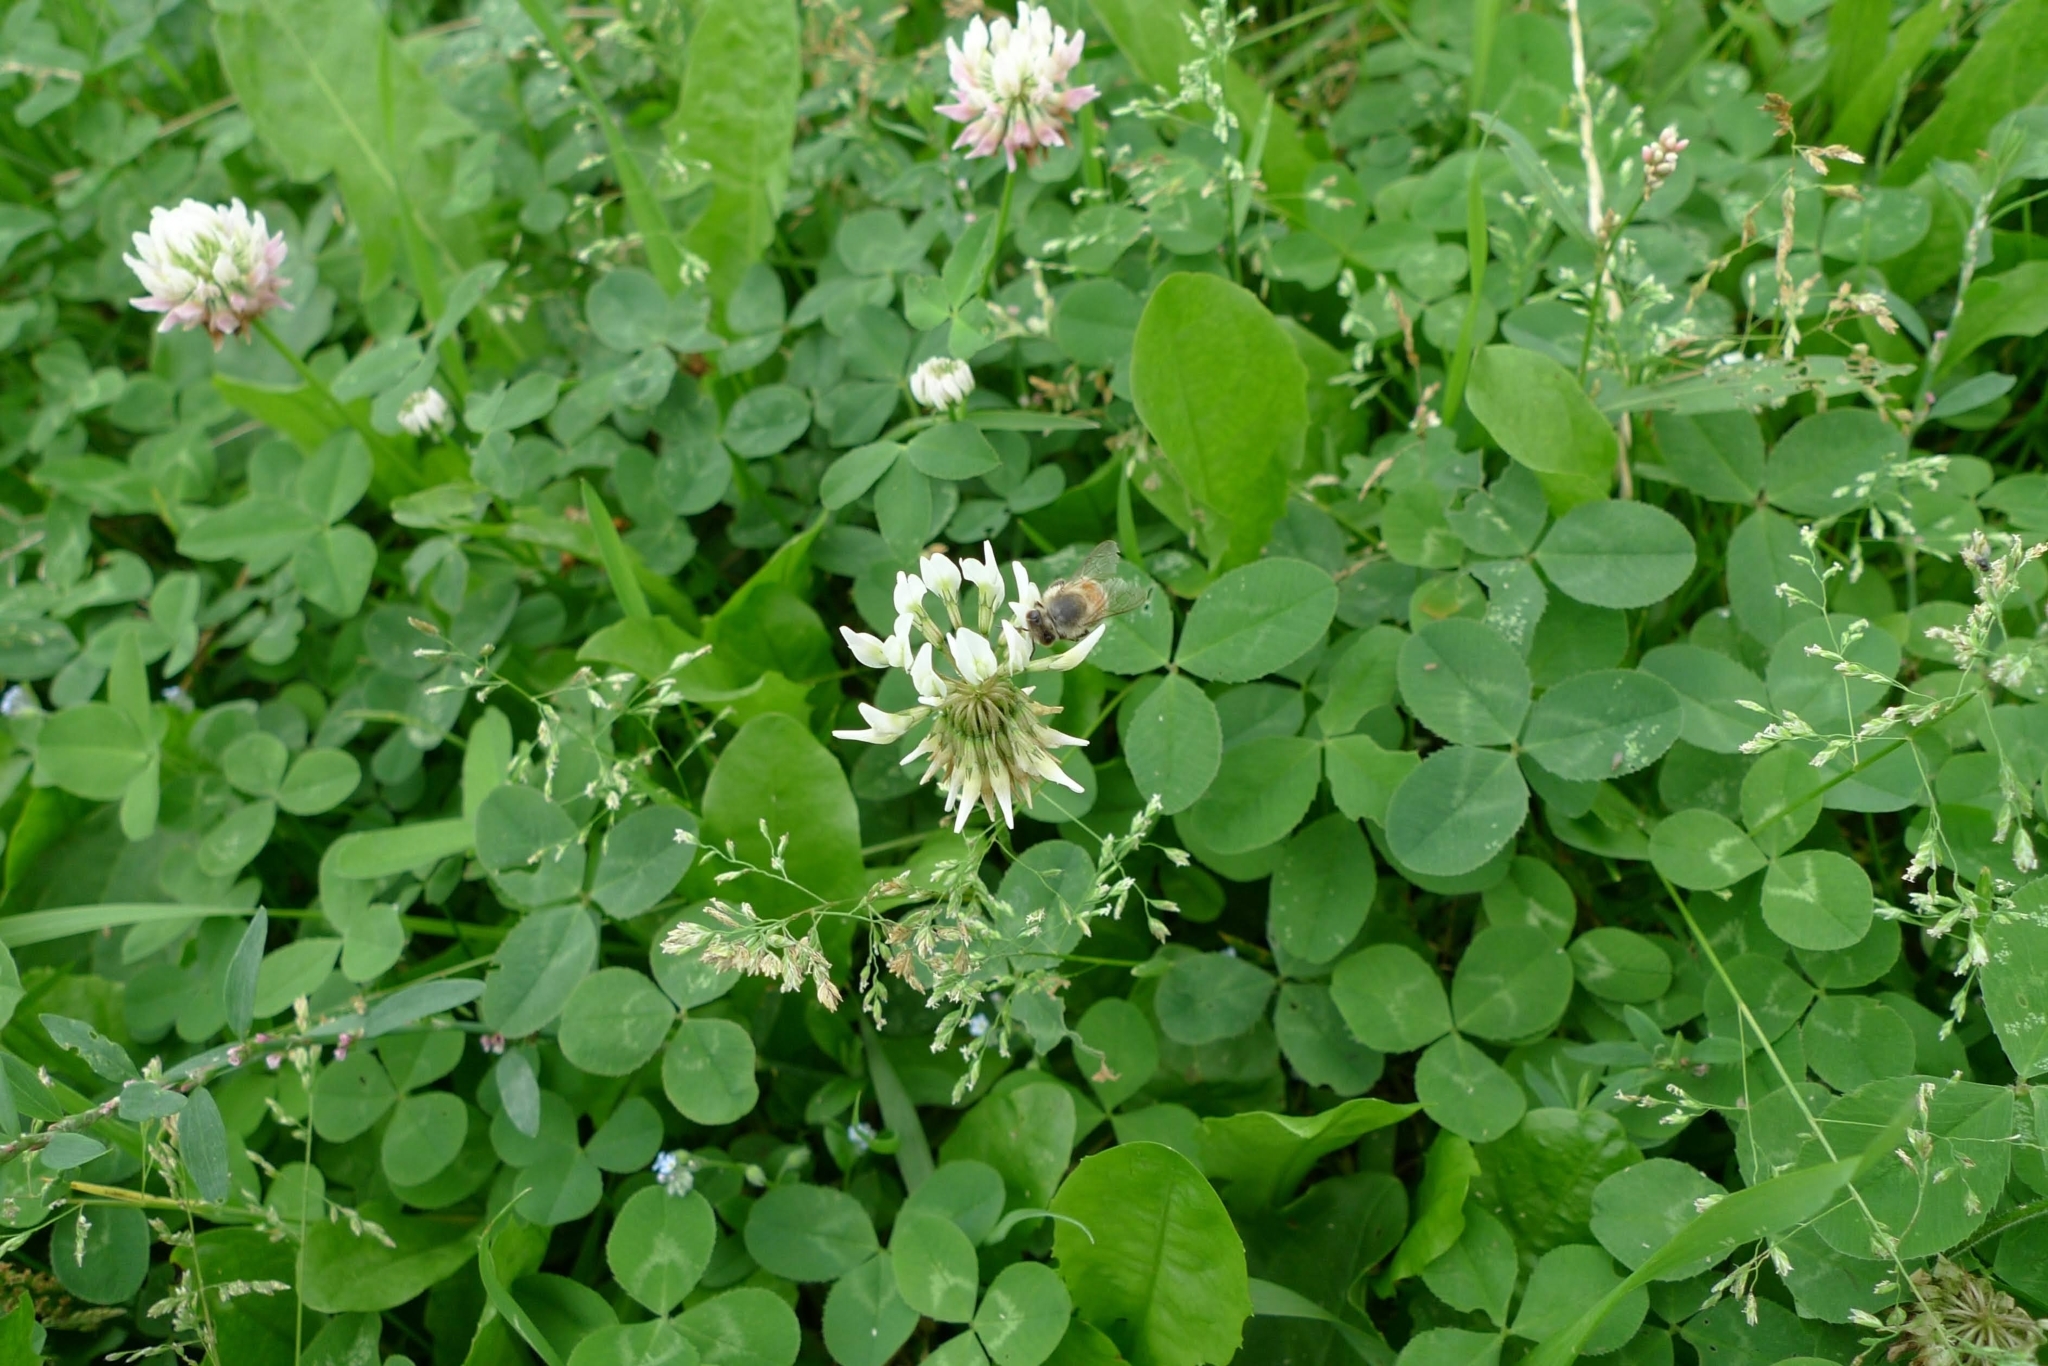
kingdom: Plantae
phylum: Tracheophyta
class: Magnoliopsida
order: Fabales
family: Fabaceae
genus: Trifolium
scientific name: Trifolium repens
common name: White clover
